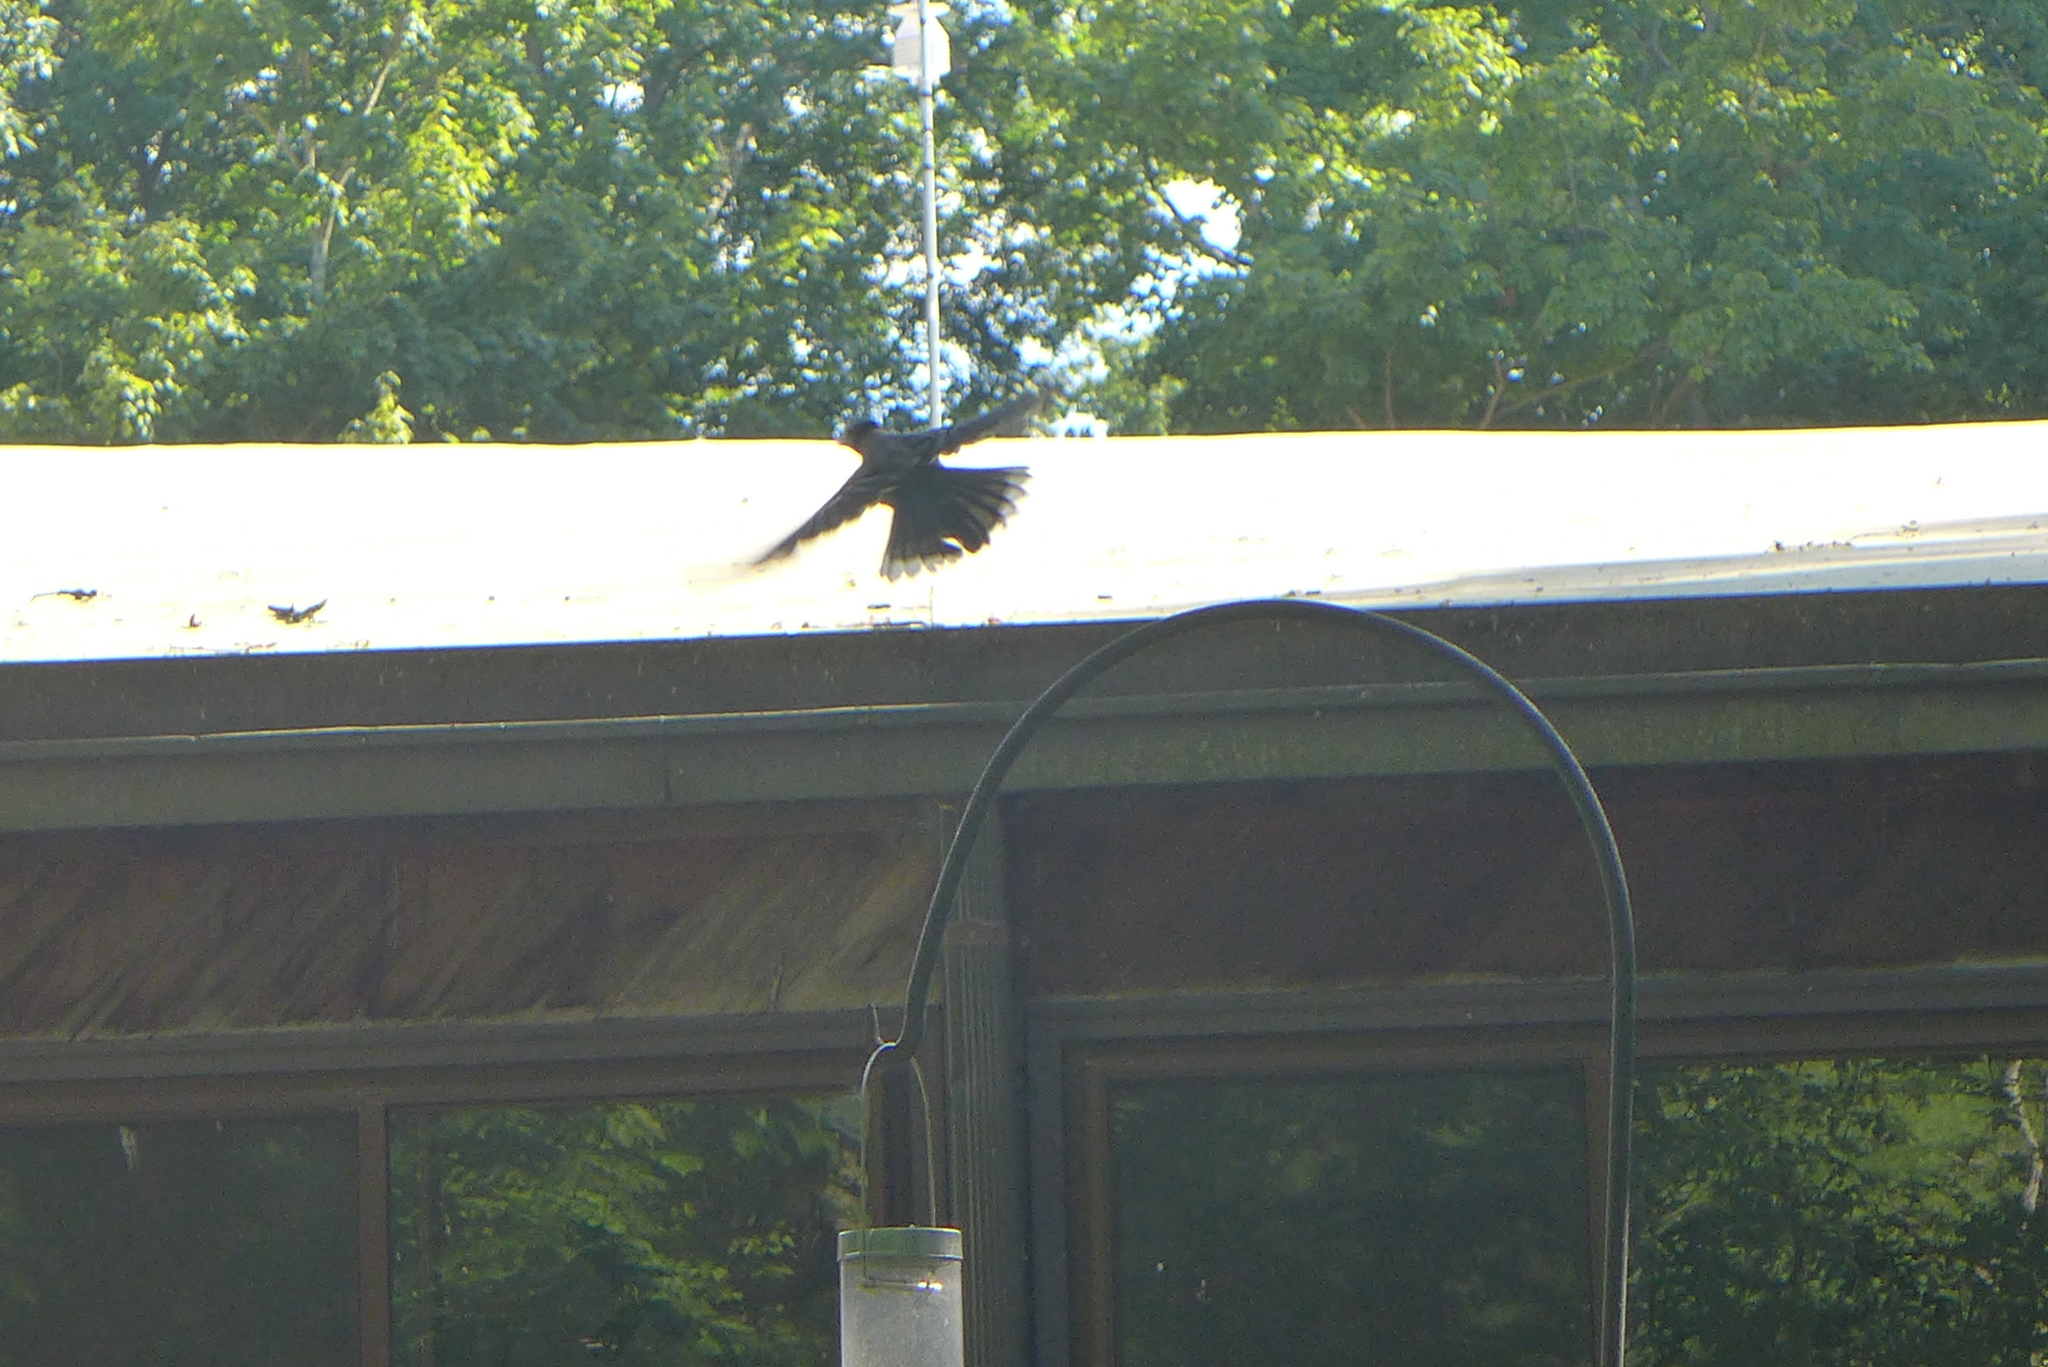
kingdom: Animalia
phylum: Chordata
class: Aves
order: Passeriformes
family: Corvidae
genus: Cyanocitta
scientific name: Cyanocitta cristata
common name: Blue jay
